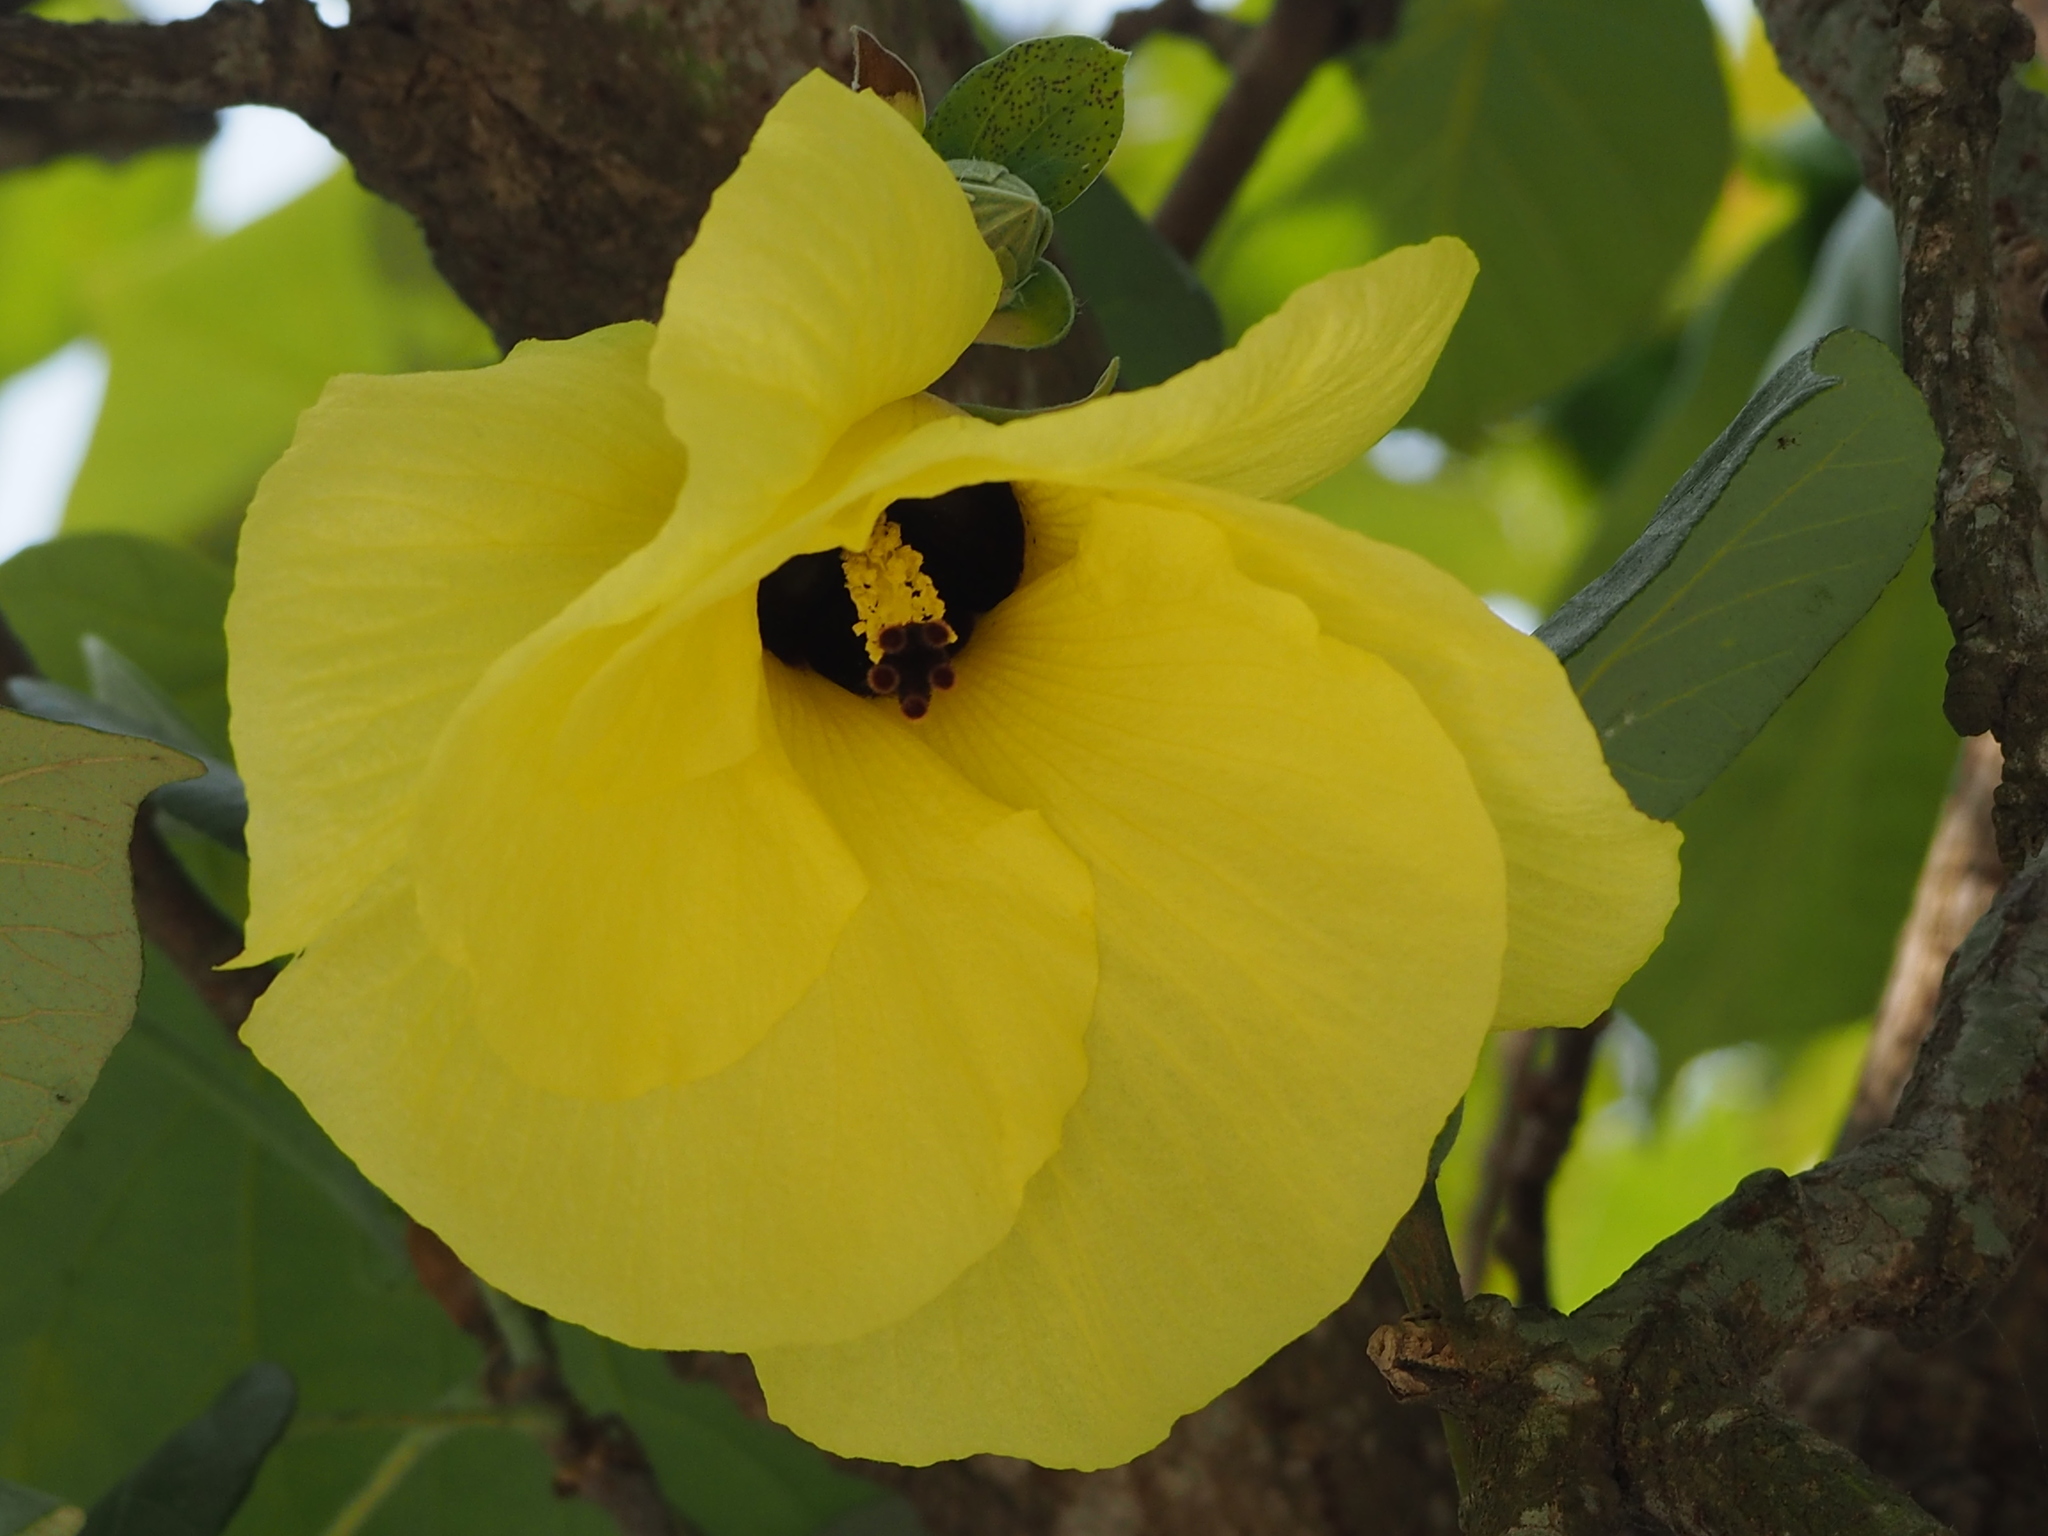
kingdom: Plantae
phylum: Tracheophyta
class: Magnoliopsida
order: Malvales
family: Malvaceae
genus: Talipariti
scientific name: Talipariti tiliaceum
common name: Sea hibiscus
